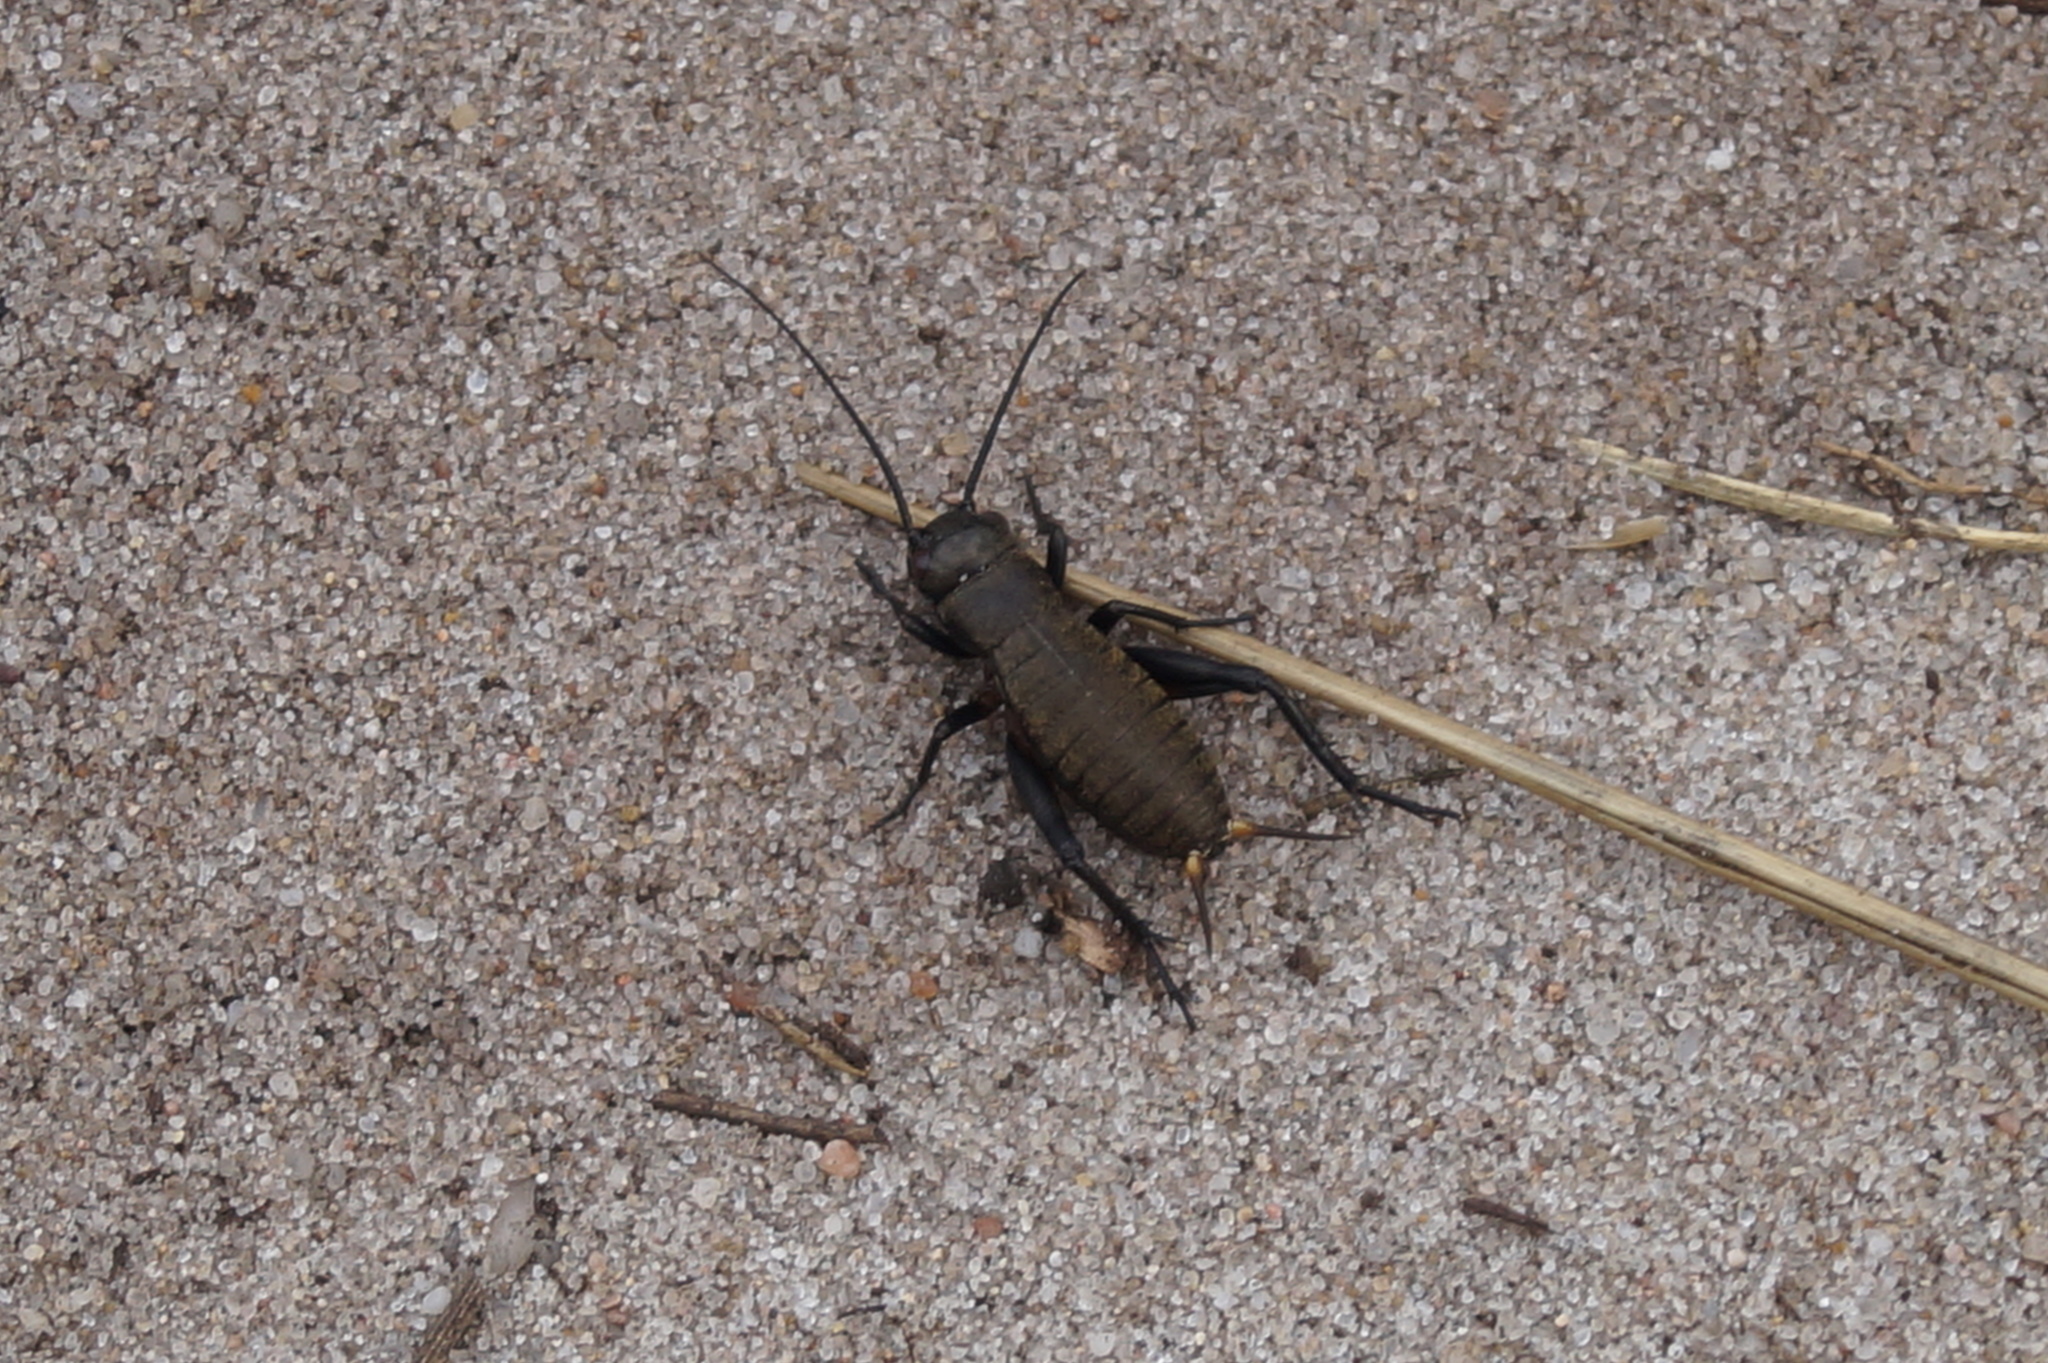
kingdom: Animalia
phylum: Arthropoda
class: Insecta
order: Orthoptera
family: Gryllidae
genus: Gryllus
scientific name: Gryllus campestris
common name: Field cricket
